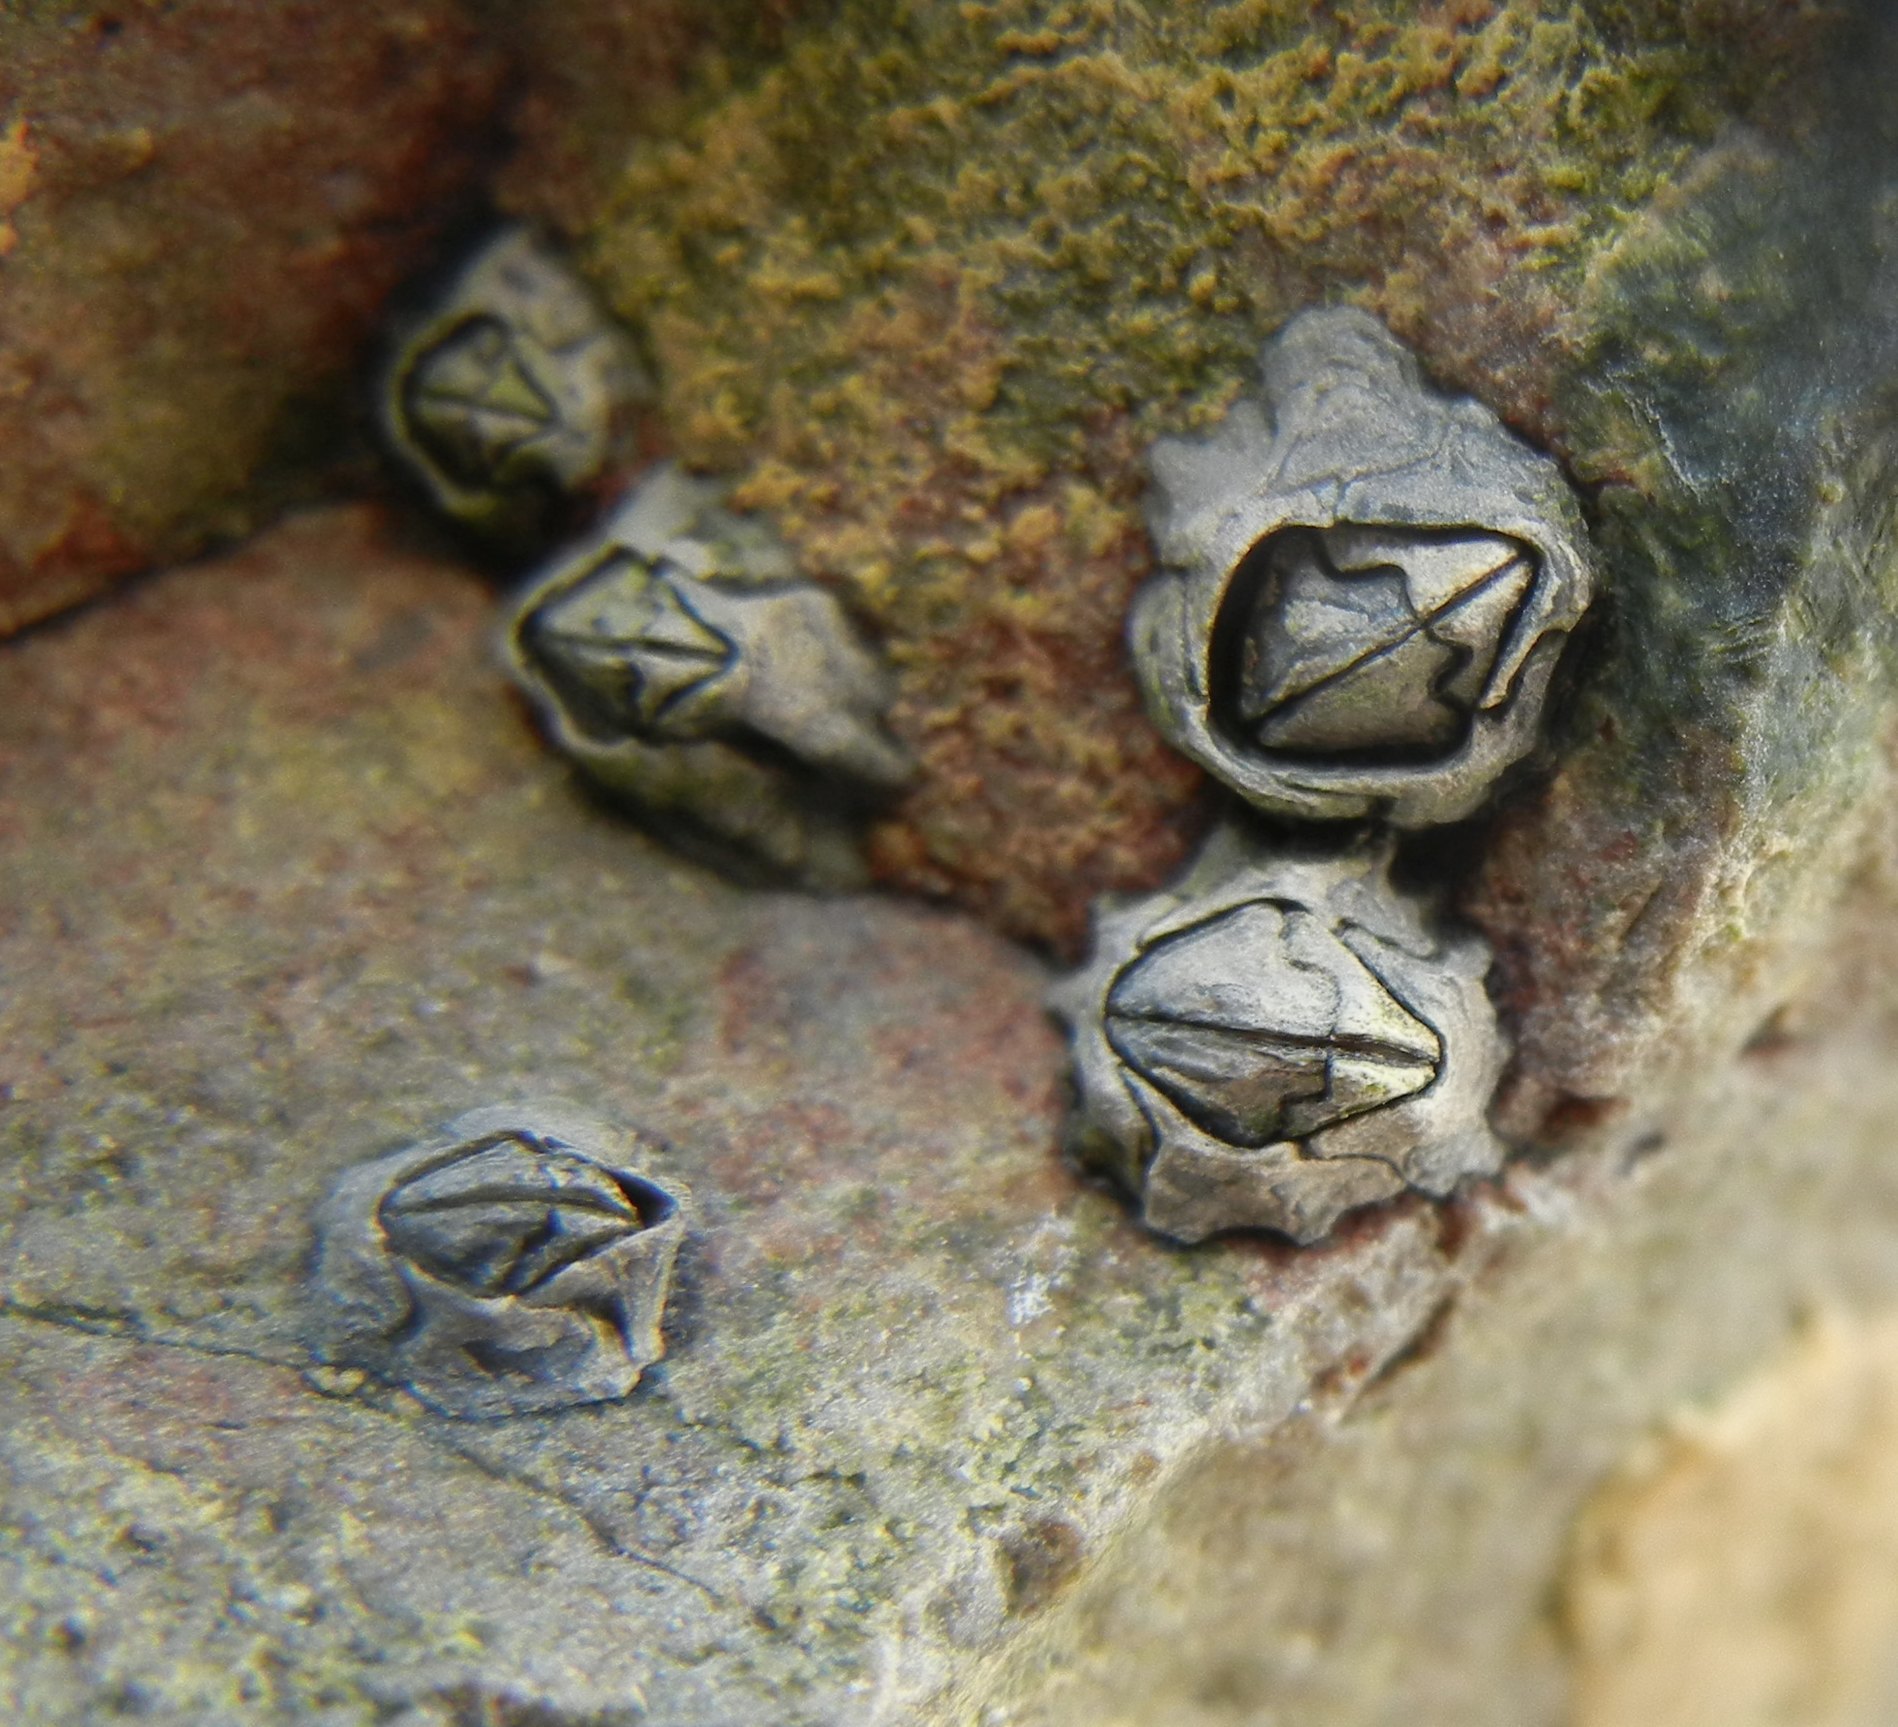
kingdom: Animalia
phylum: Arthropoda
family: Elminiidae
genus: Austrominius
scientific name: Austrominius modestus
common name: Australasian barnacle
